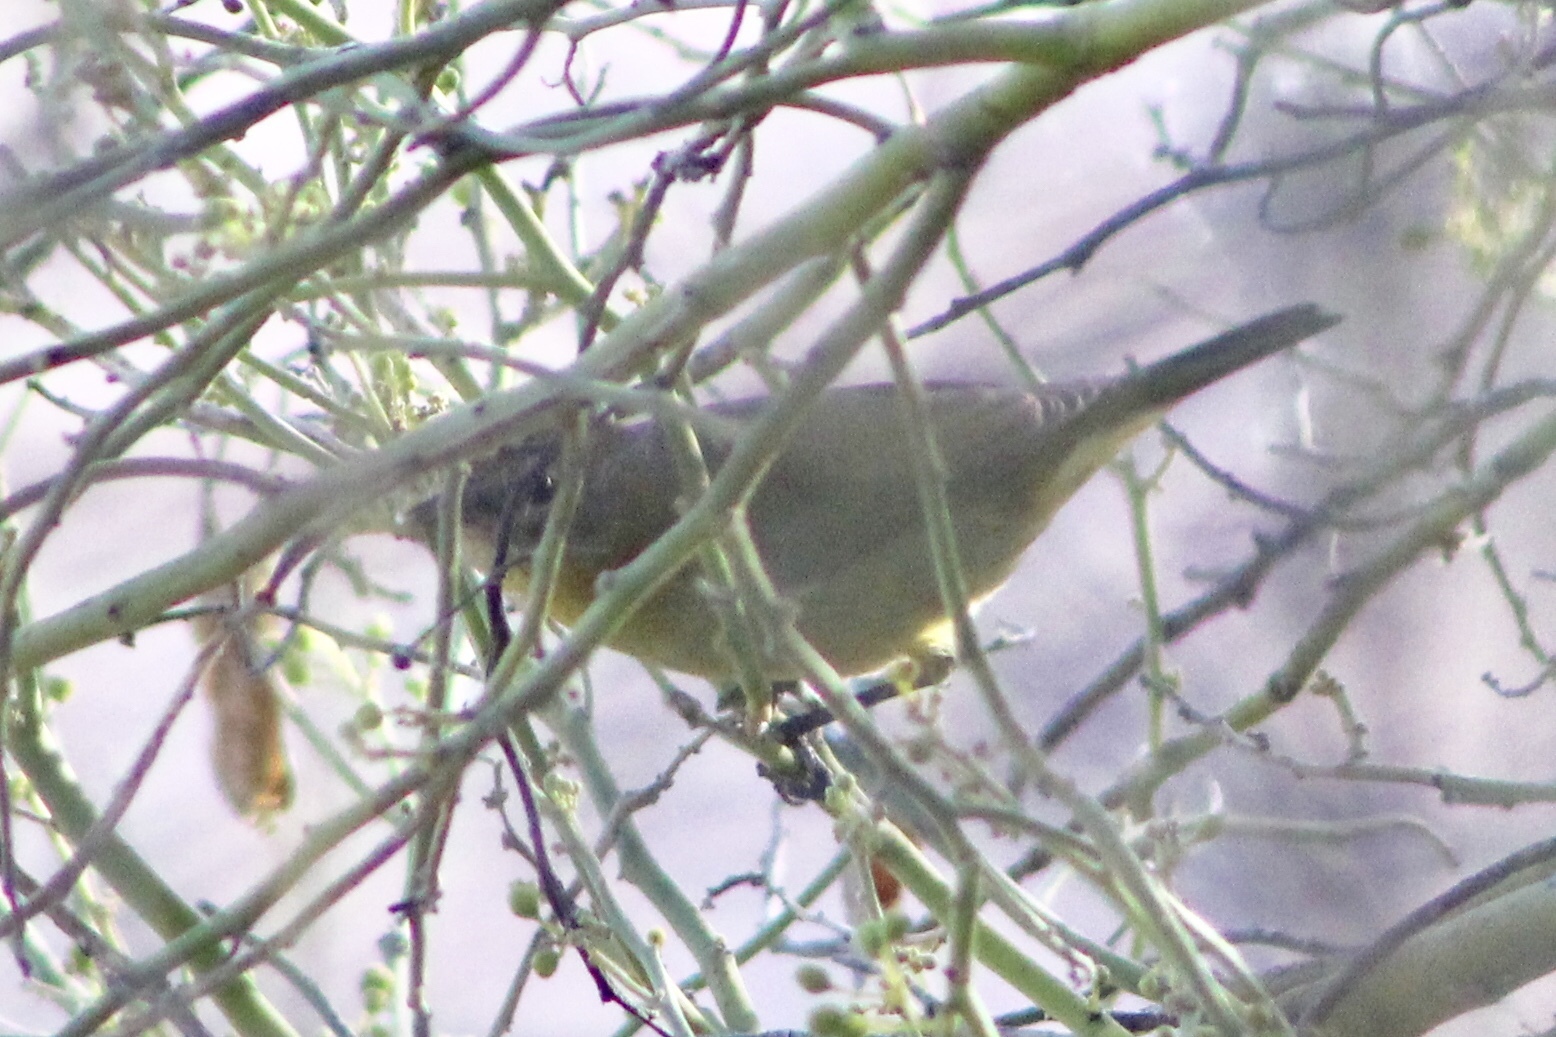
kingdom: Animalia
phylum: Chordata
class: Aves
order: Passeriformes
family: Parulidae
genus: Leiothlypis
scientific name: Leiothlypis celata
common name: Orange-crowned warbler
